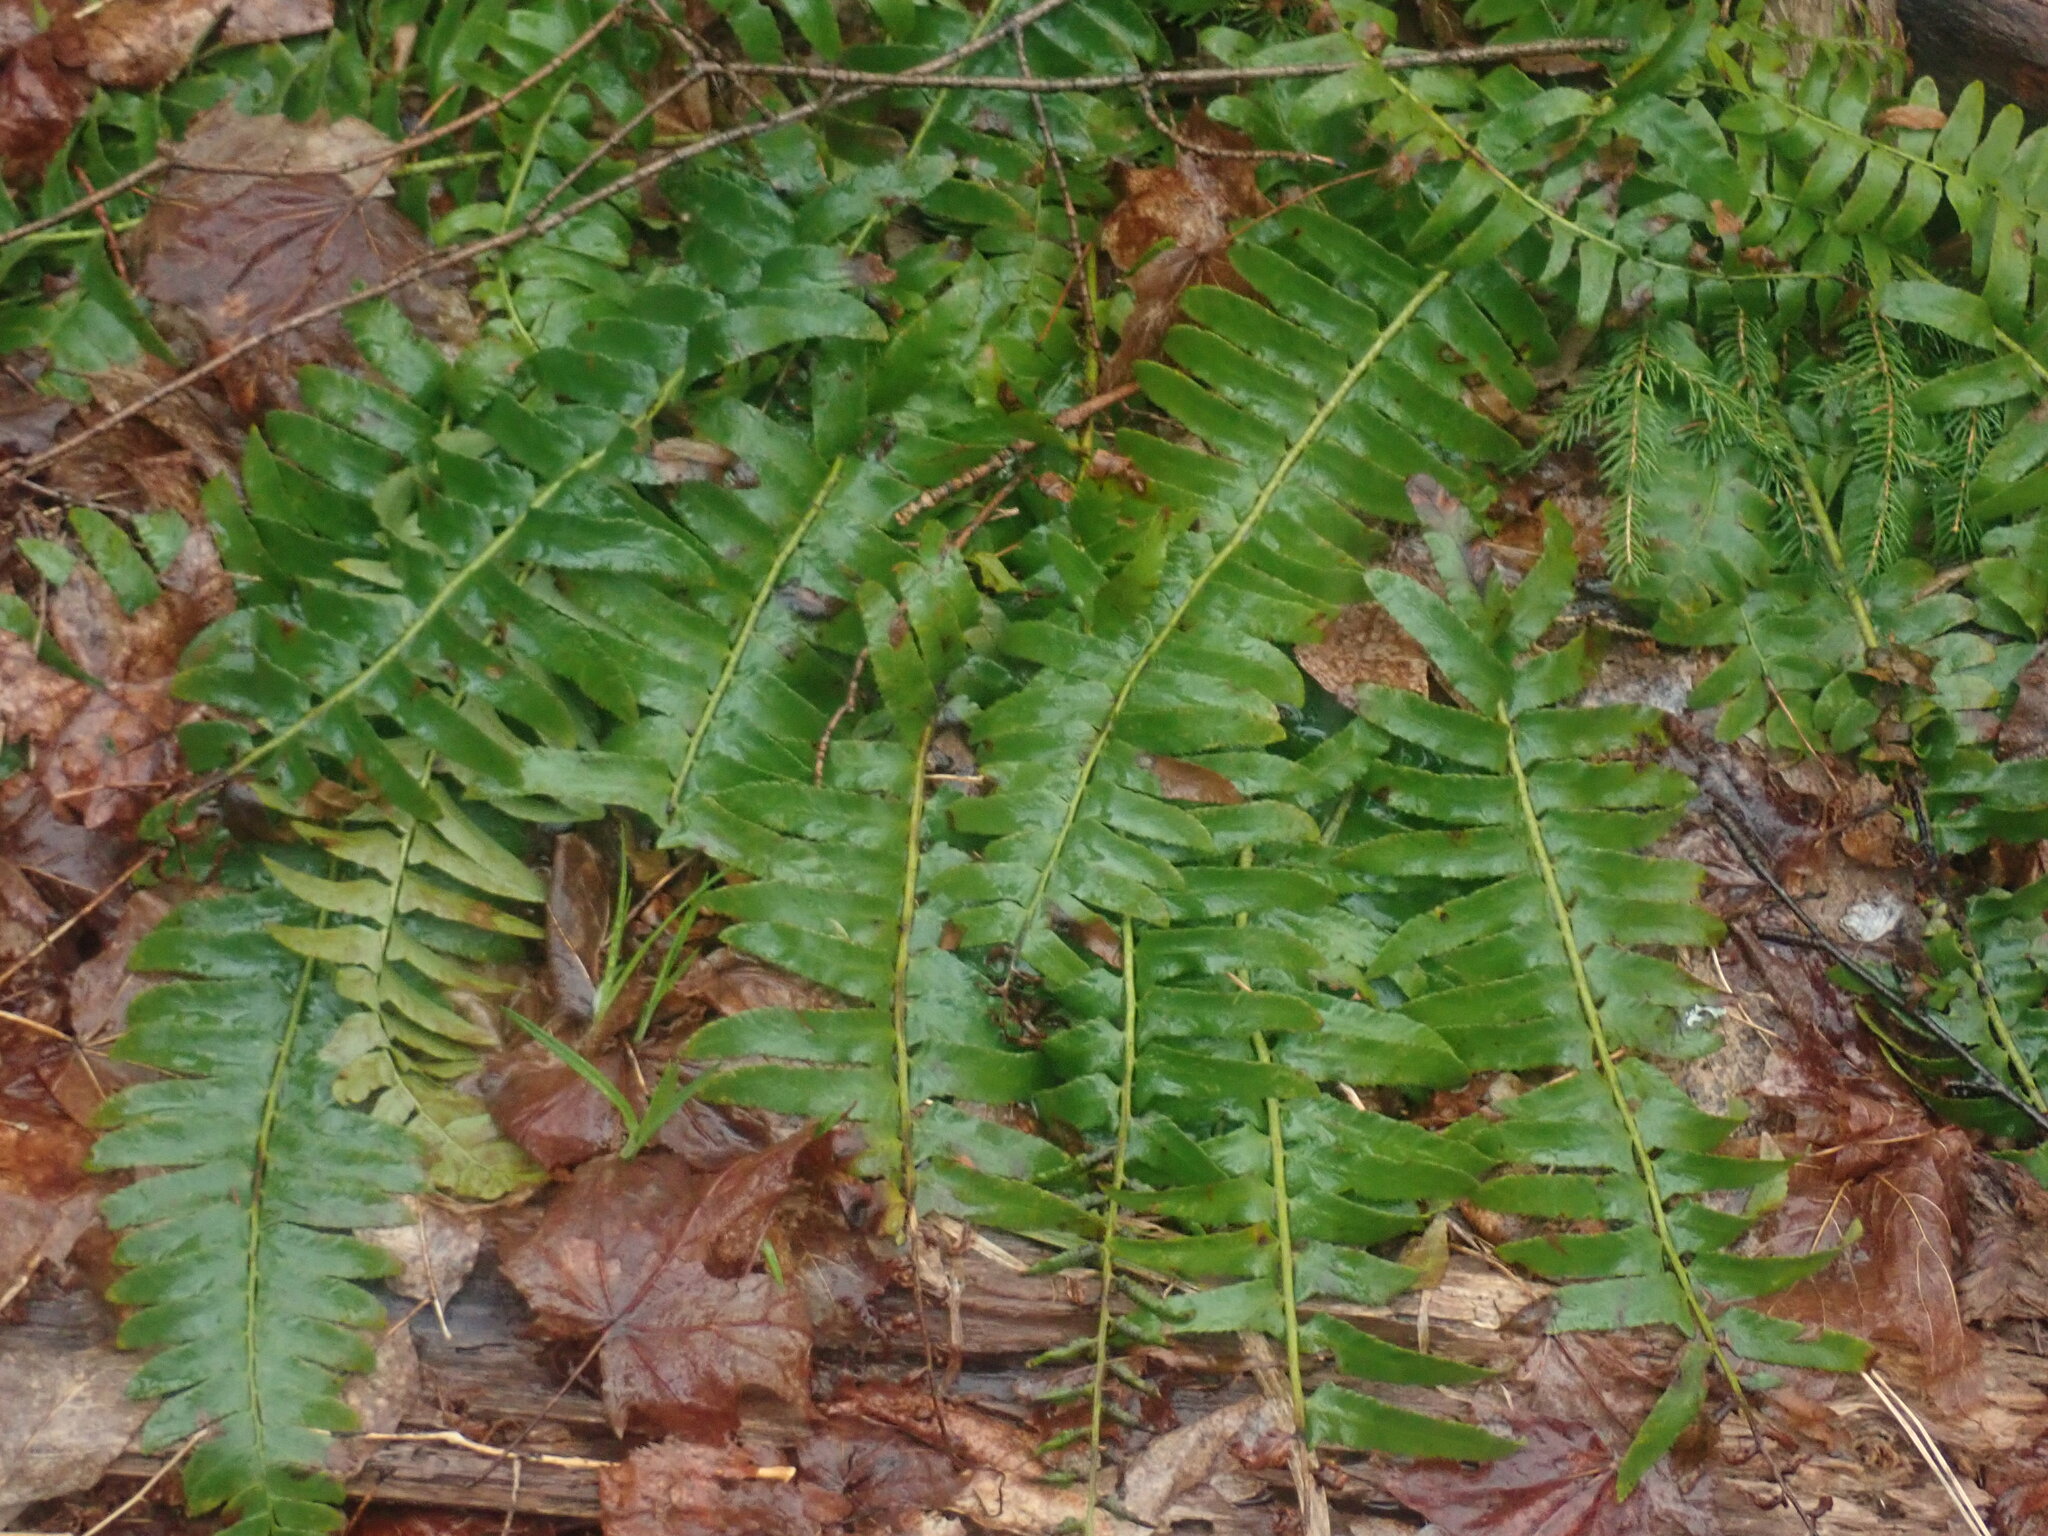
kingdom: Plantae
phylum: Tracheophyta
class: Polypodiopsida
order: Polypodiales
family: Dryopteridaceae
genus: Polystichum
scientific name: Polystichum acrostichoides
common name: Christmas fern
